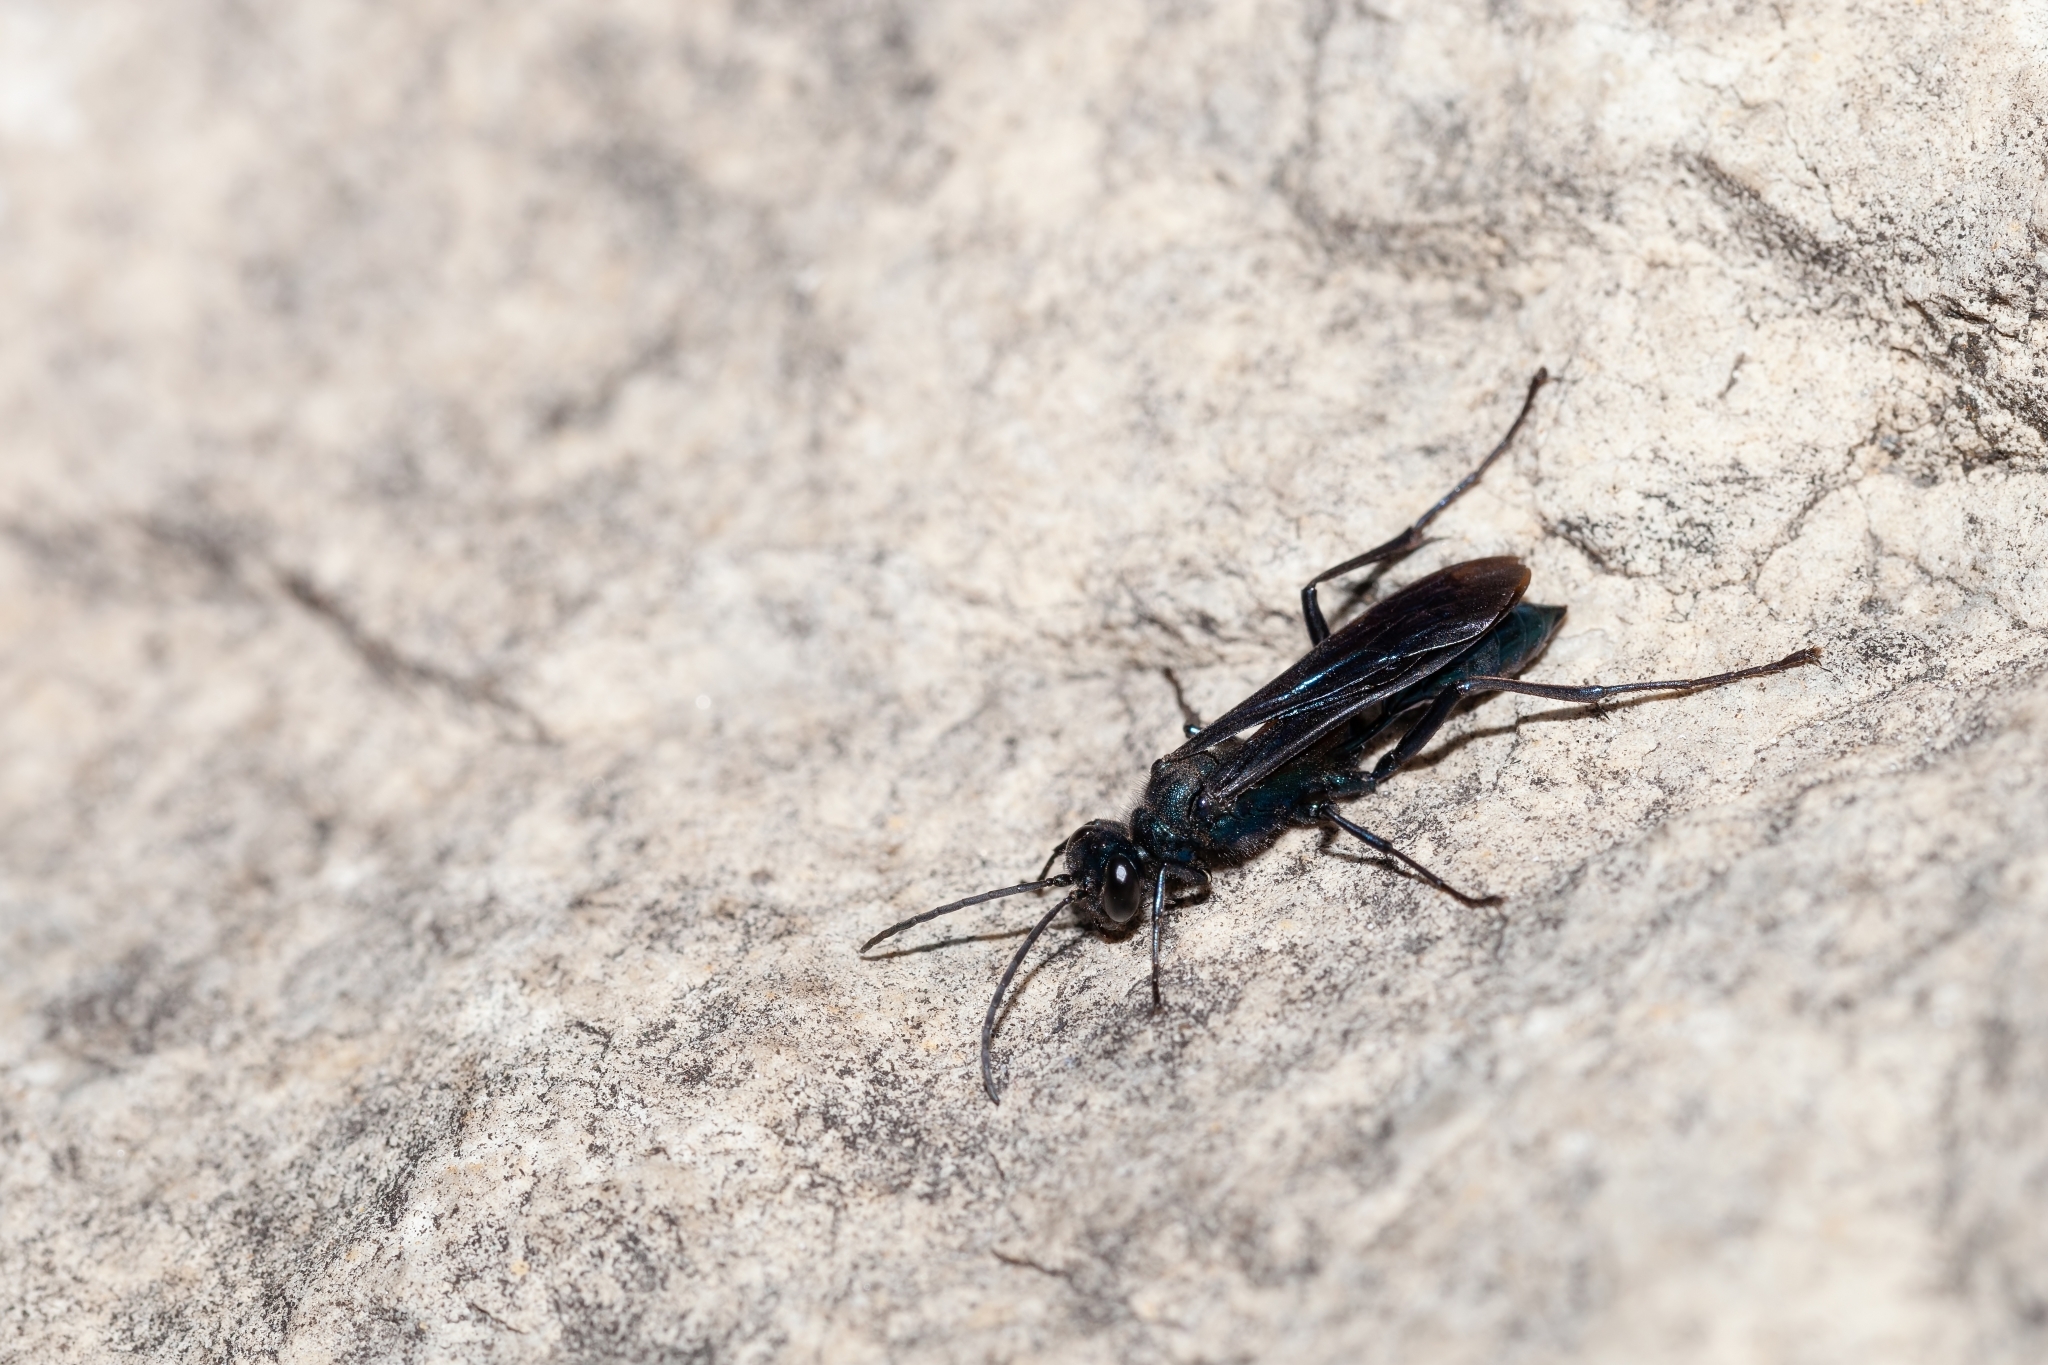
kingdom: Animalia
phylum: Arthropoda
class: Insecta
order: Hymenoptera
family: Sphecidae
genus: Chalybion
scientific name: Chalybion californicum
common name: Mud dauber
